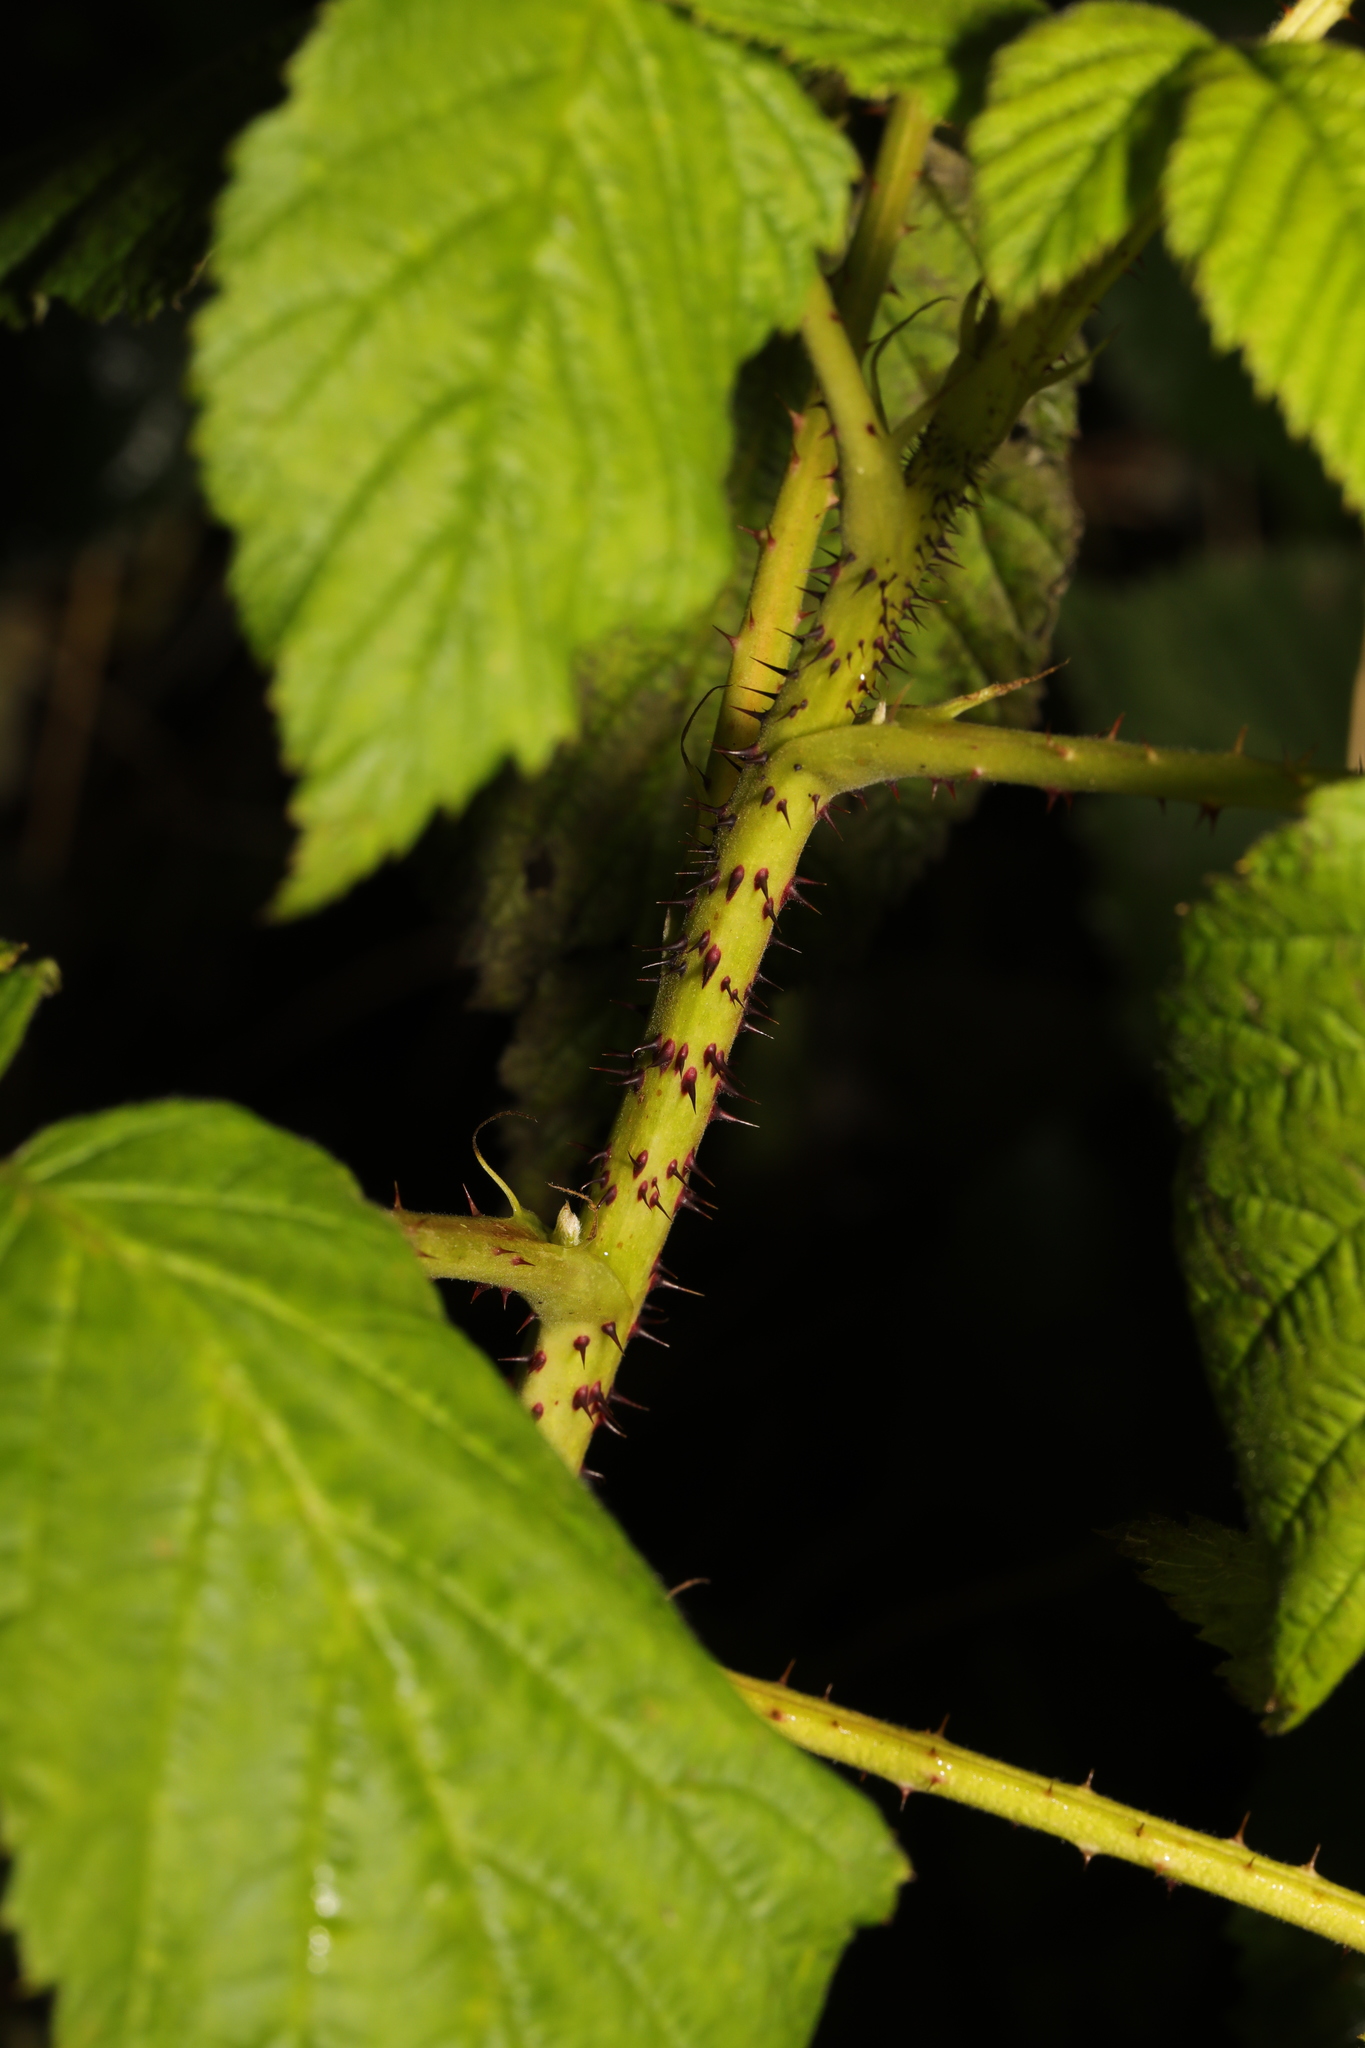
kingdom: Plantae
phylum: Tracheophyta
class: Magnoliopsida
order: Rosales
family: Rosaceae
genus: Rubus
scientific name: Rubus idaeus
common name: Raspberry
